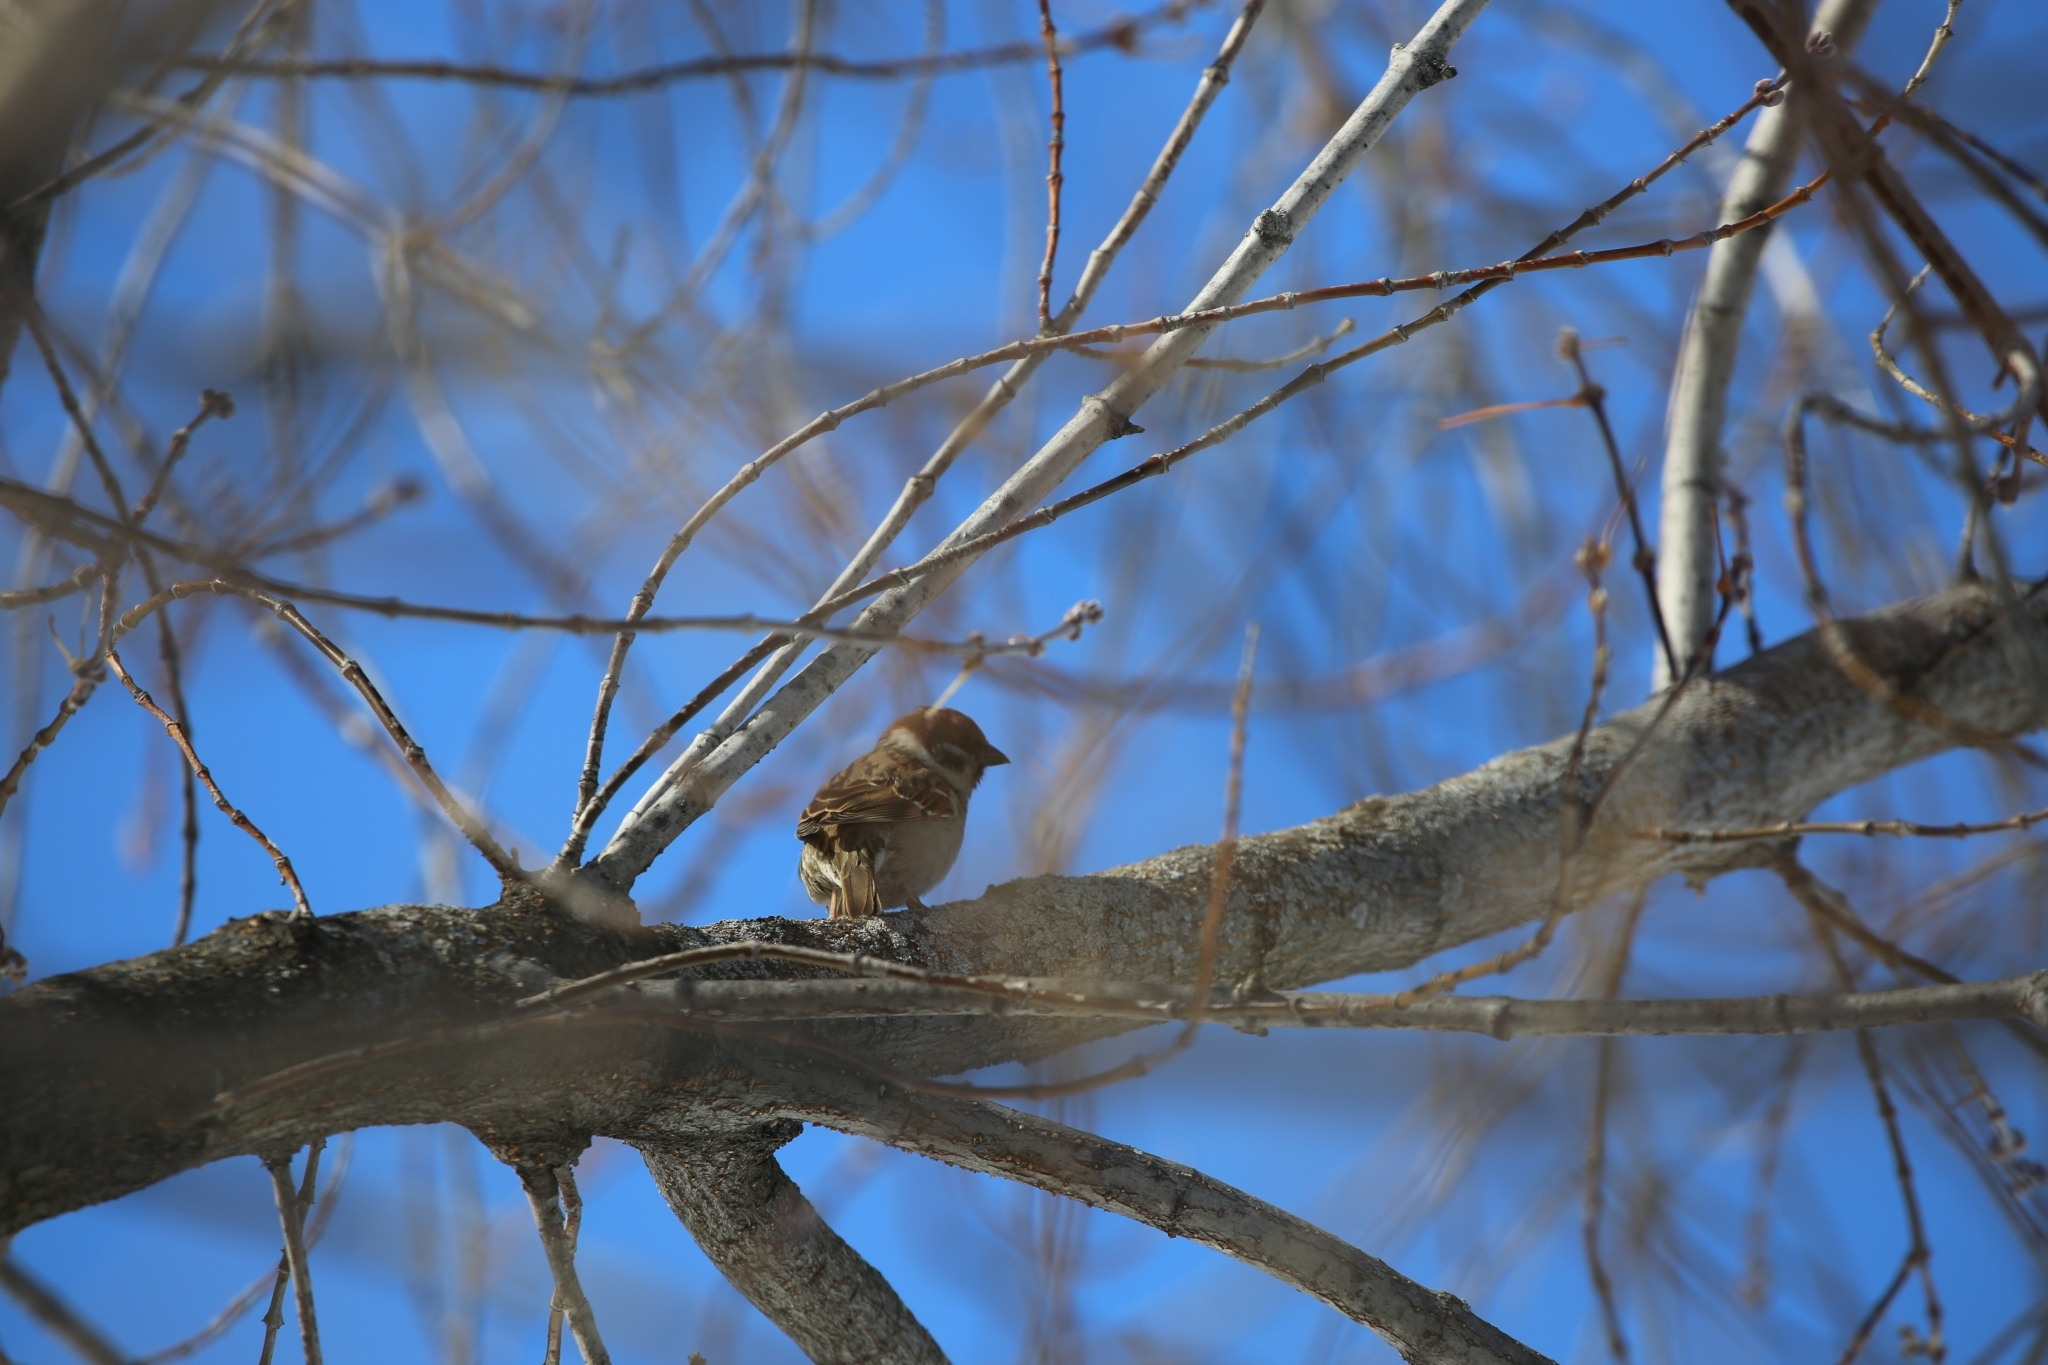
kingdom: Animalia
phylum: Chordata
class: Aves
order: Passeriformes
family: Passeridae
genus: Passer
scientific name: Passer montanus
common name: Eurasian tree sparrow
